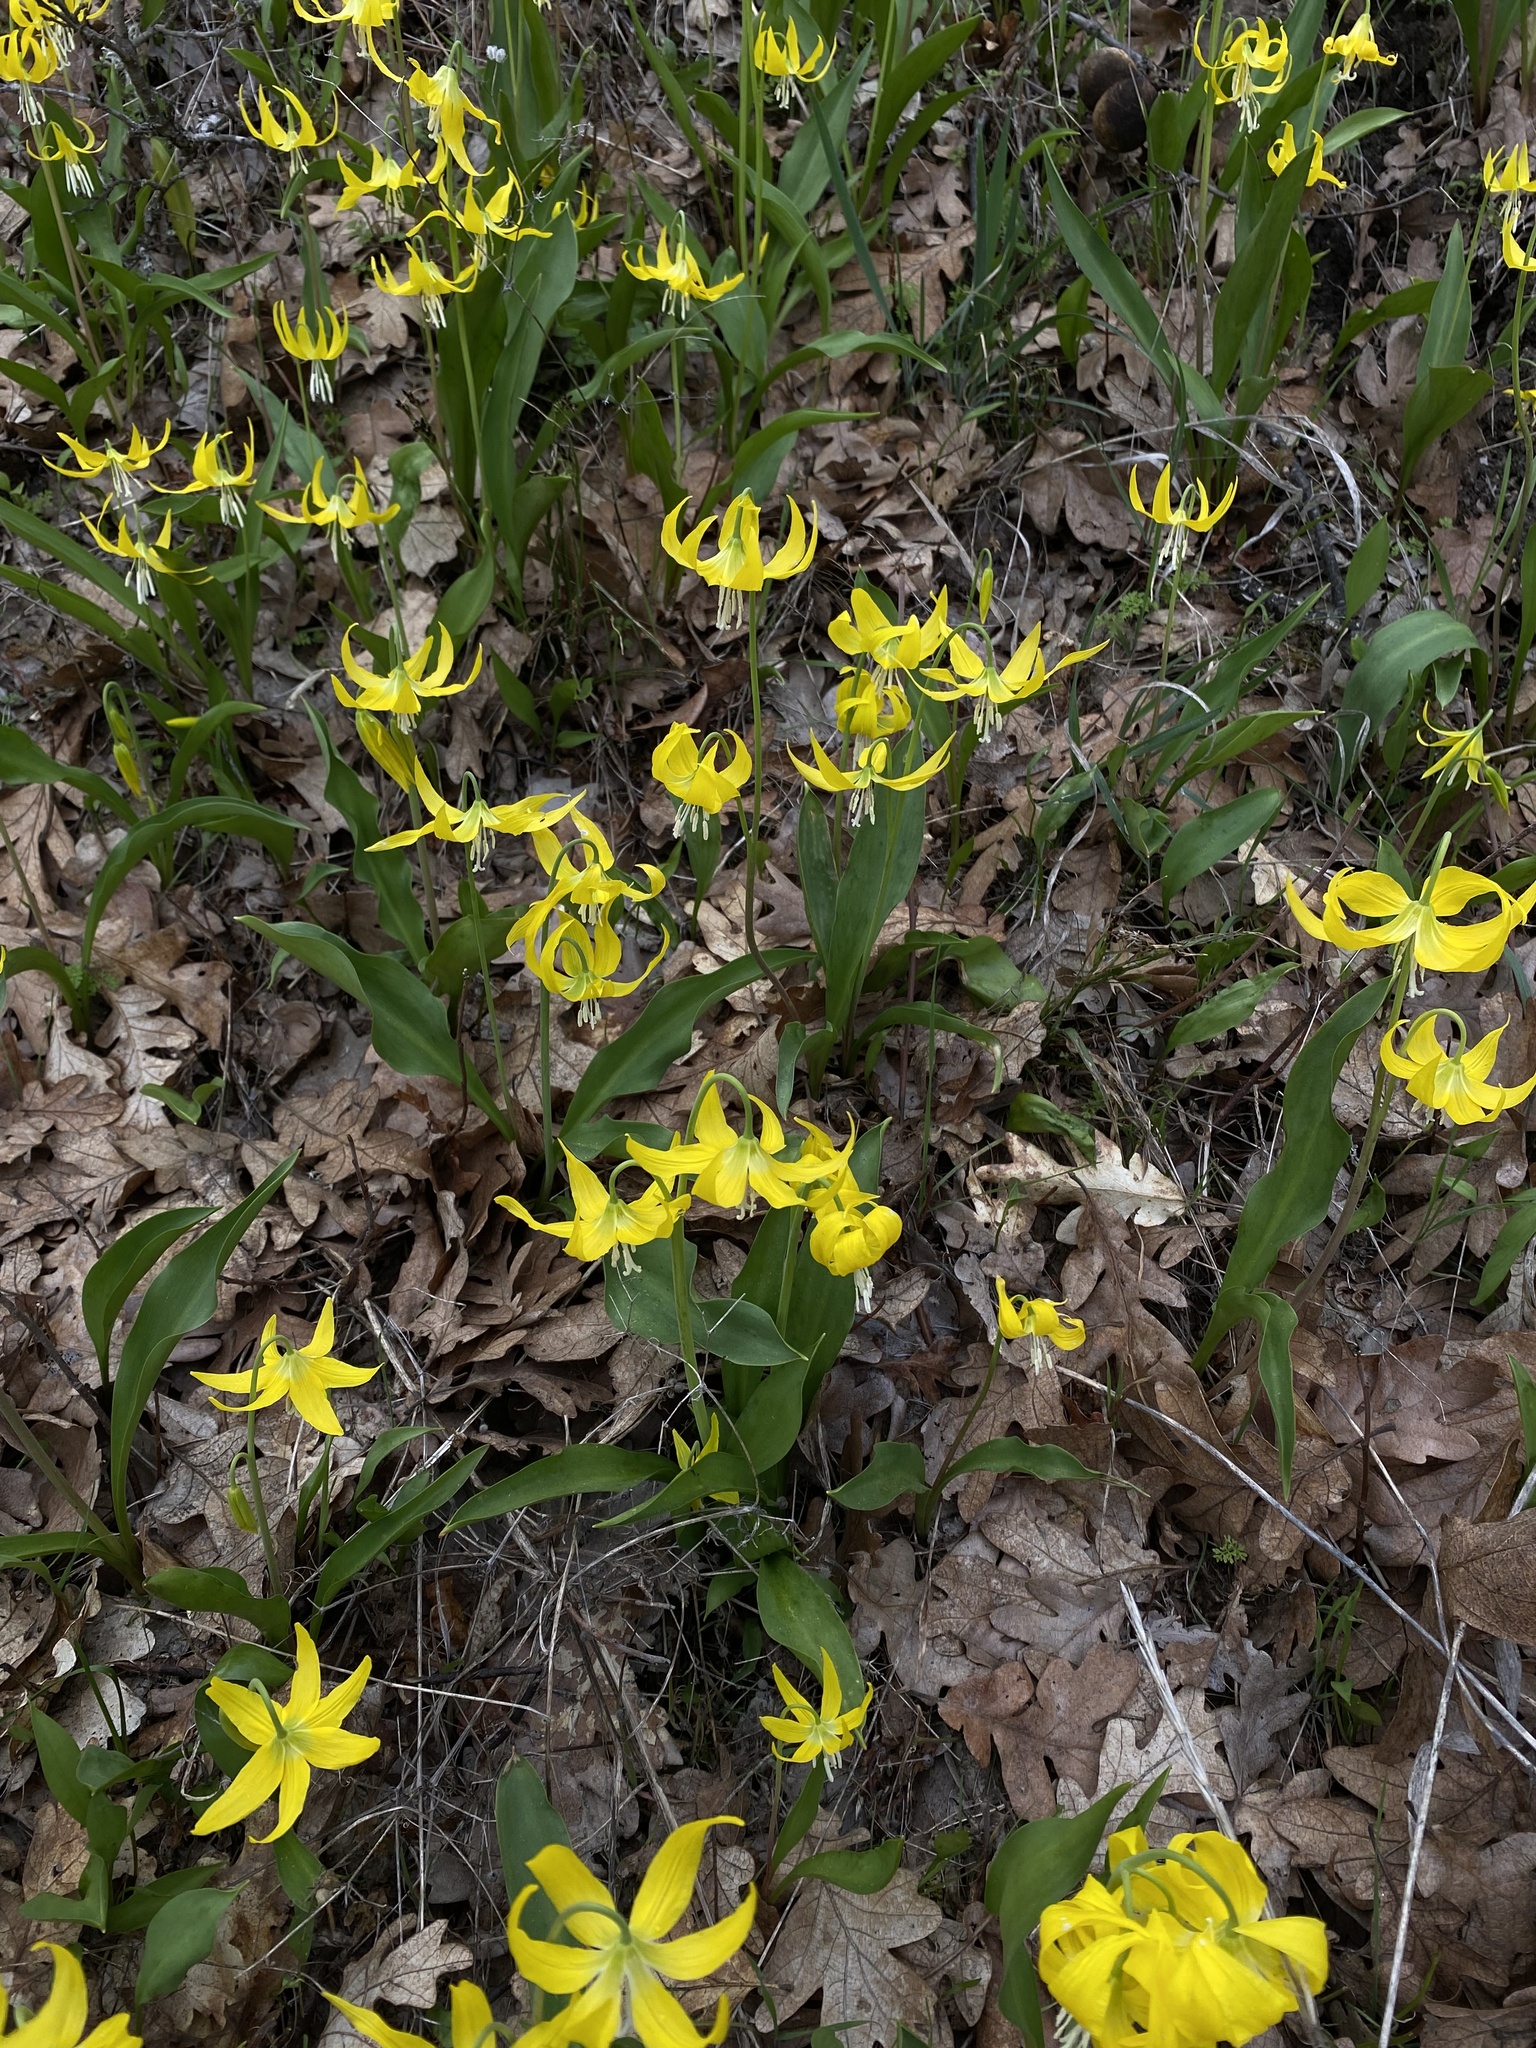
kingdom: Plantae
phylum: Tracheophyta
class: Liliopsida
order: Liliales
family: Liliaceae
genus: Erythronium
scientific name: Erythronium grandiflorum
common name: Avalanche-lily
